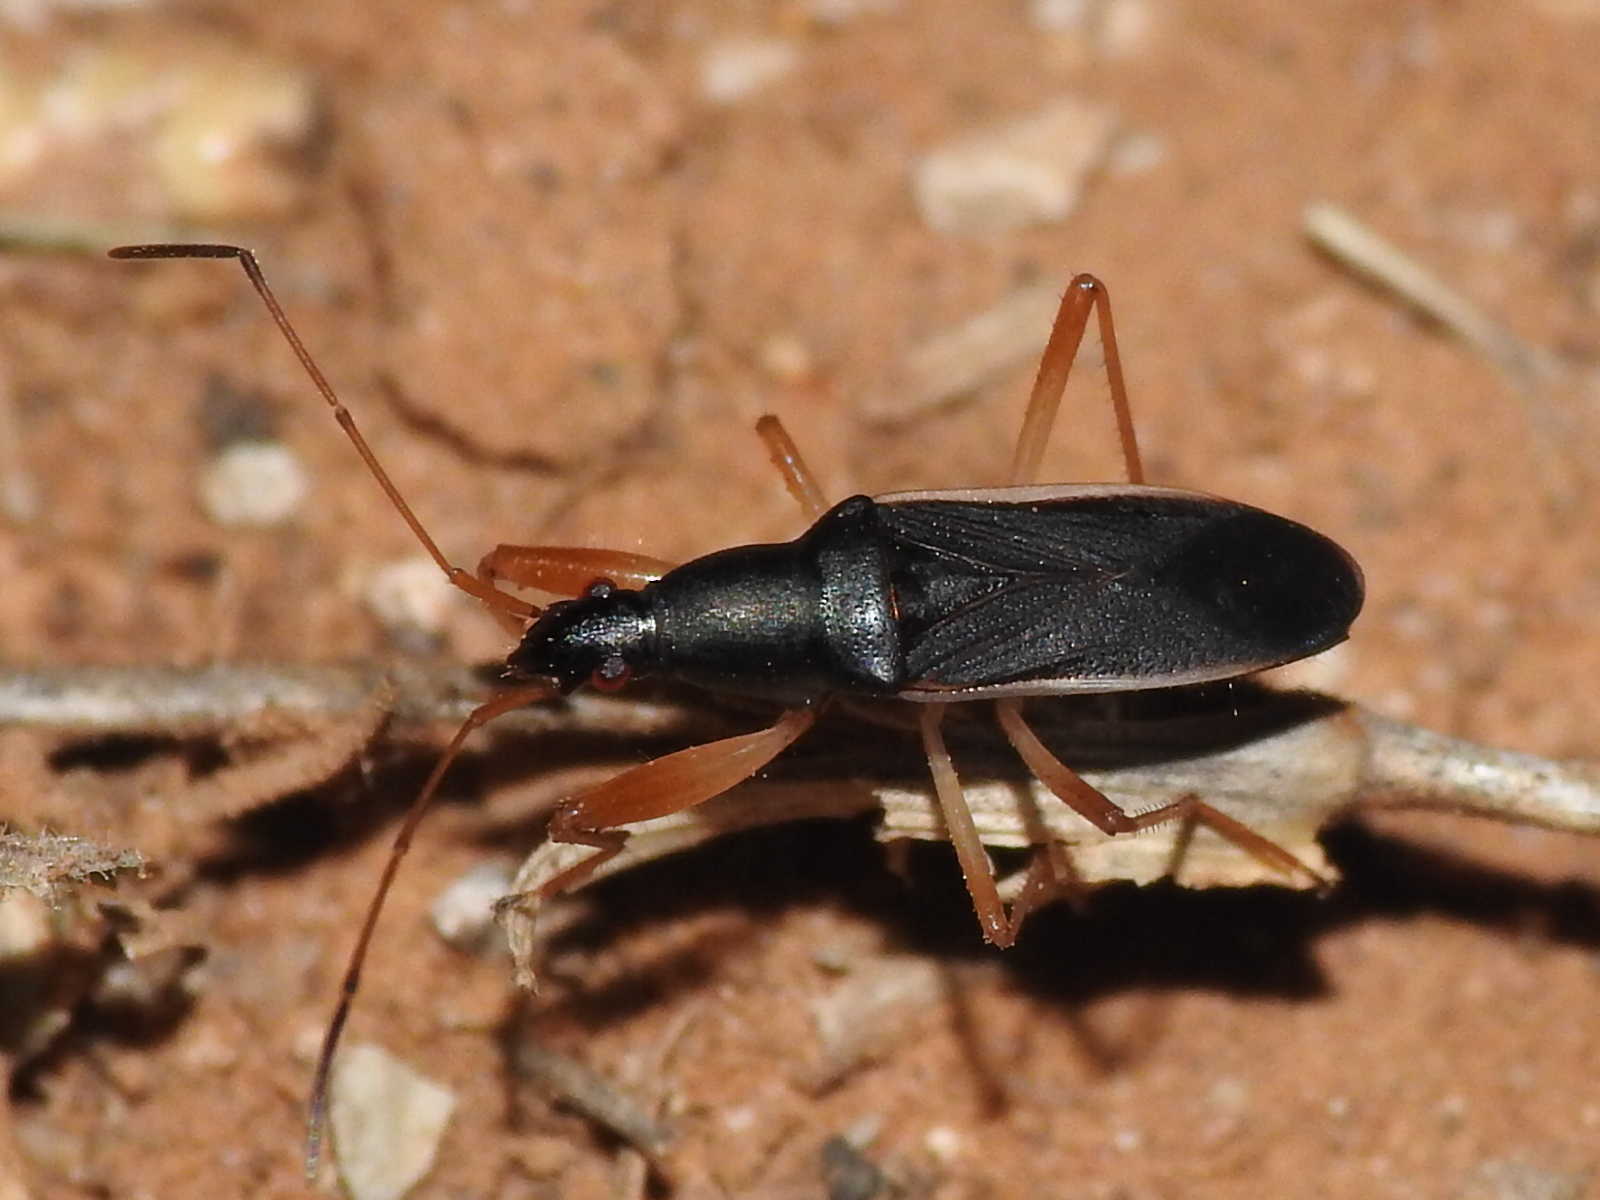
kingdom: Animalia
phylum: Arthropoda
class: Insecta
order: Hemiptera
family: Rhyparochromidae
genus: Cnemodus
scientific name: Cnemodus mavortius
